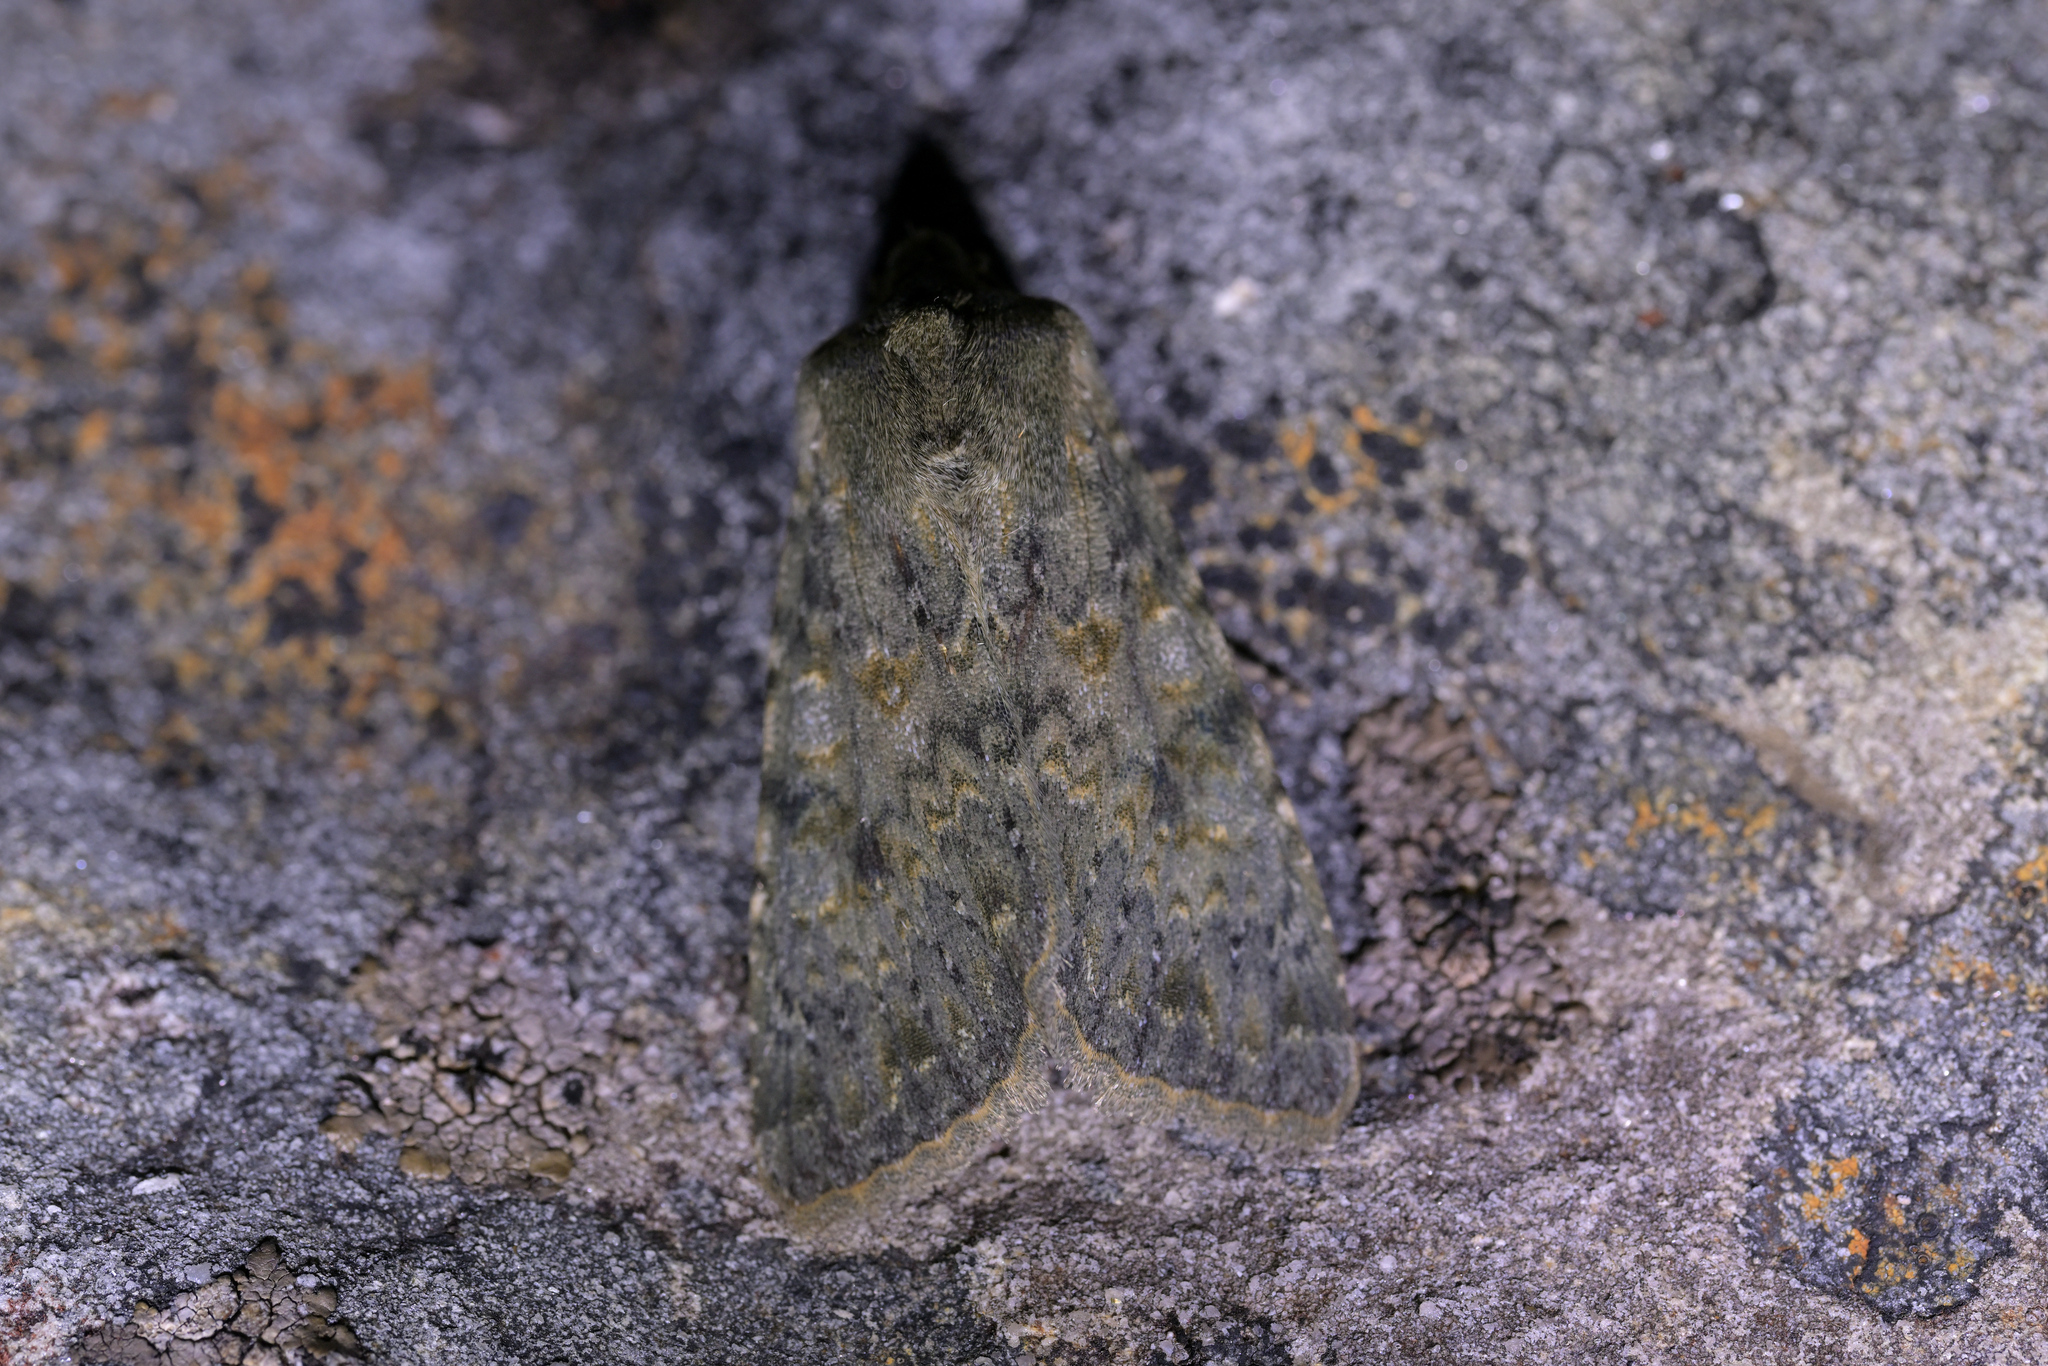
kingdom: Animalia
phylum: Arthropoda
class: Insecta
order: Lepidoptera
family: Noctuidae
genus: Ichneutica
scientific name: Ichneutica
